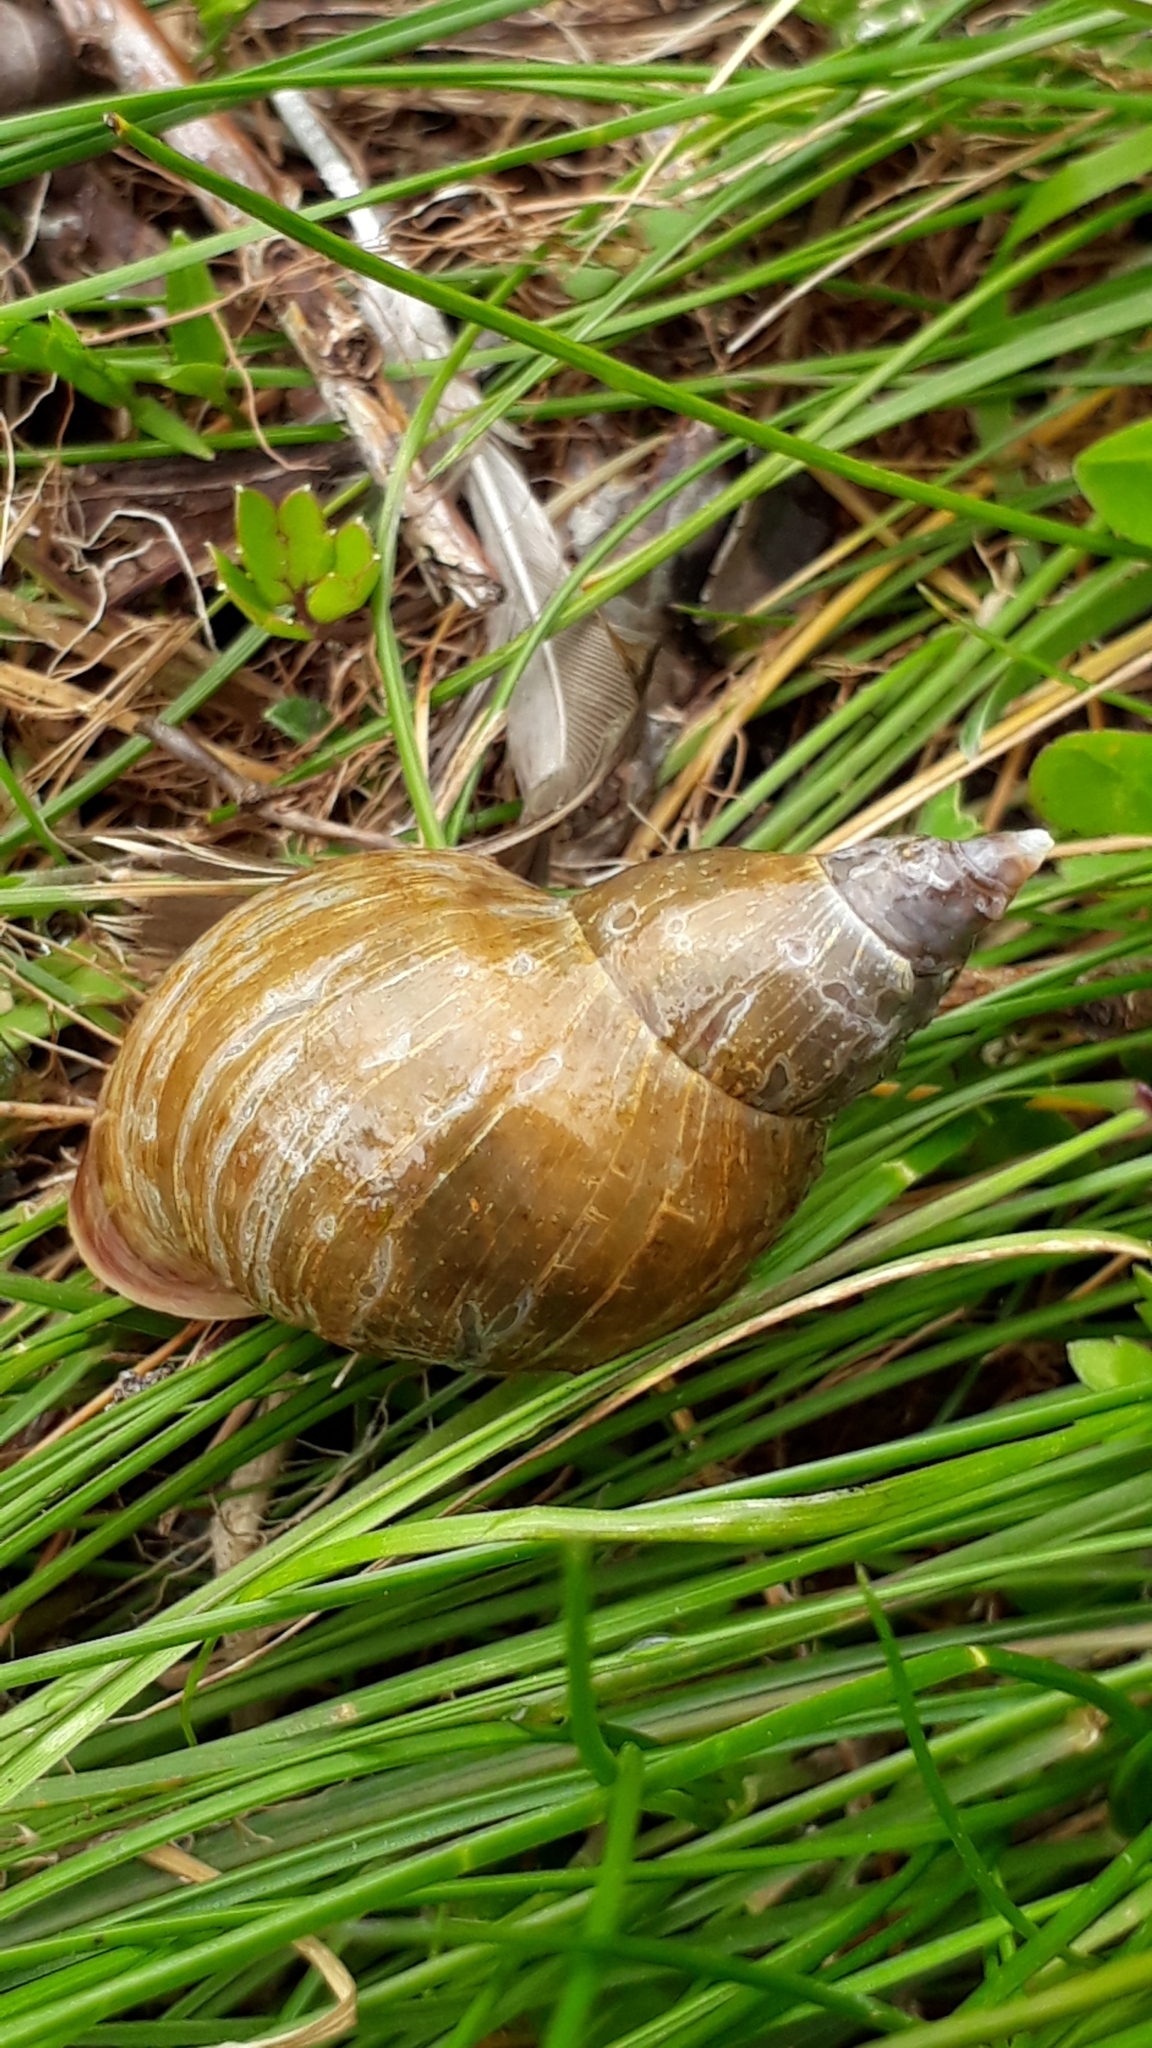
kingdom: Animalia
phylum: Mollusca
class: Gastropoda
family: Lymnaeidae
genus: Lymnaea
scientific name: Lymnaea stagnalis
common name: Great pond snail
